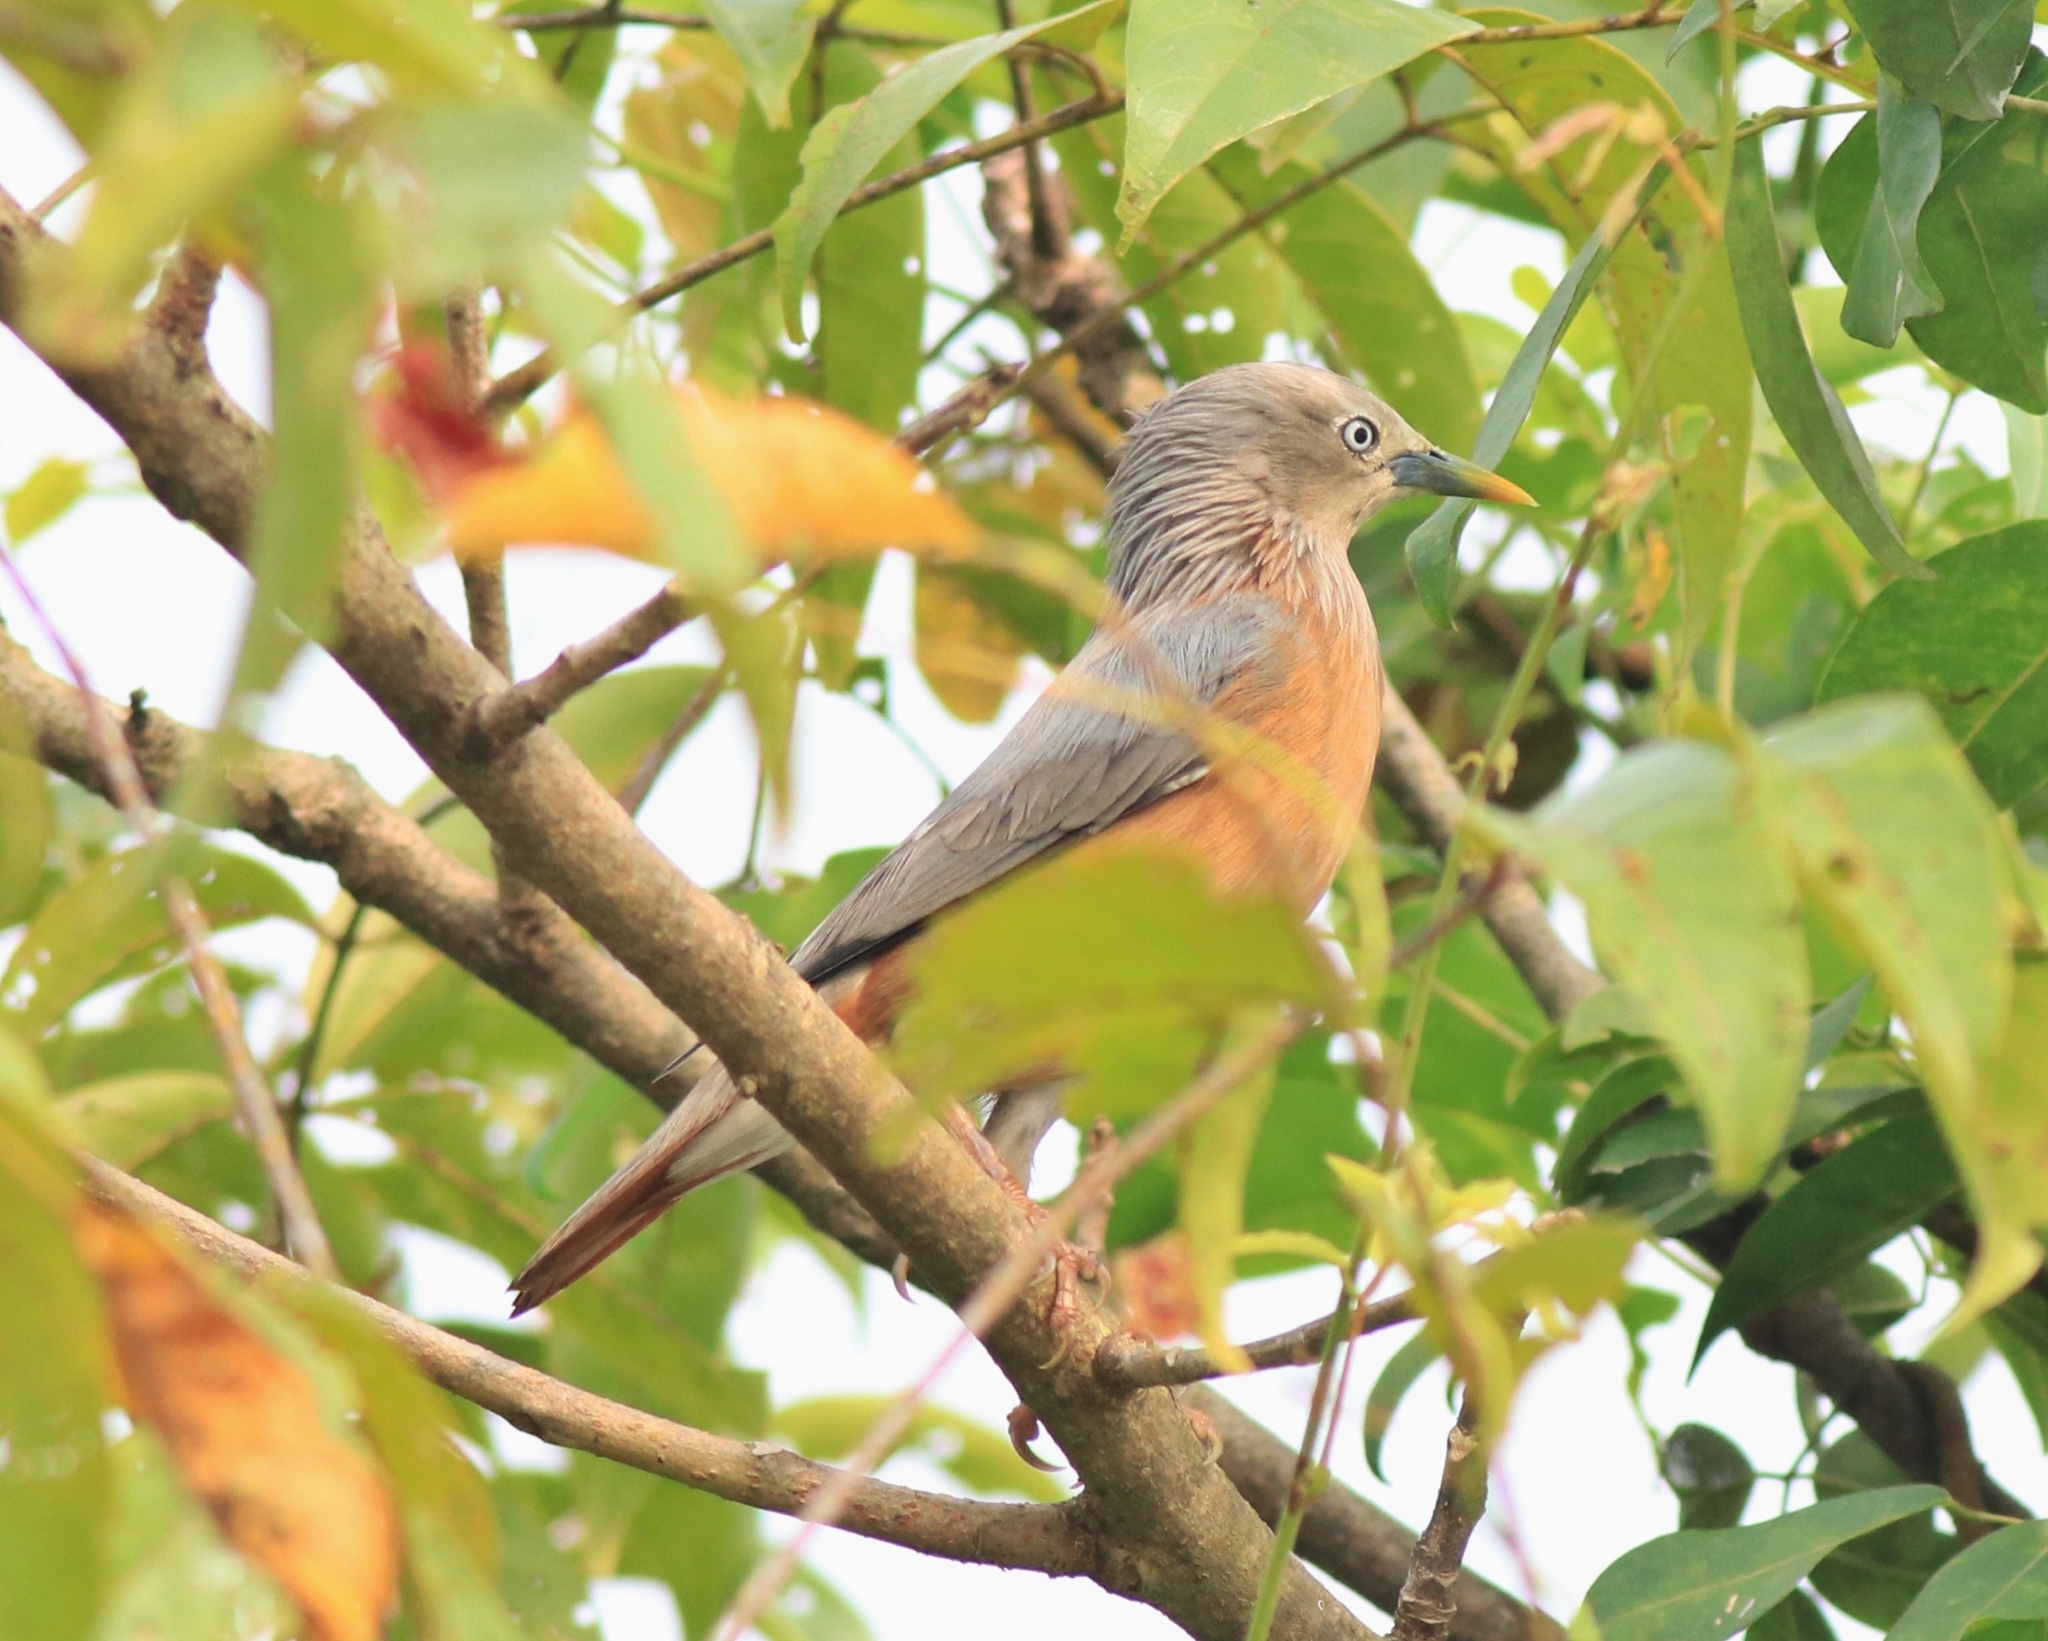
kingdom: Animalia
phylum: Chordata
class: Aves
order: Passeriformes
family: Sturnidae
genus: Sturnia
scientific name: Sturnia malabarica
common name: Chestnut-tailed starling
